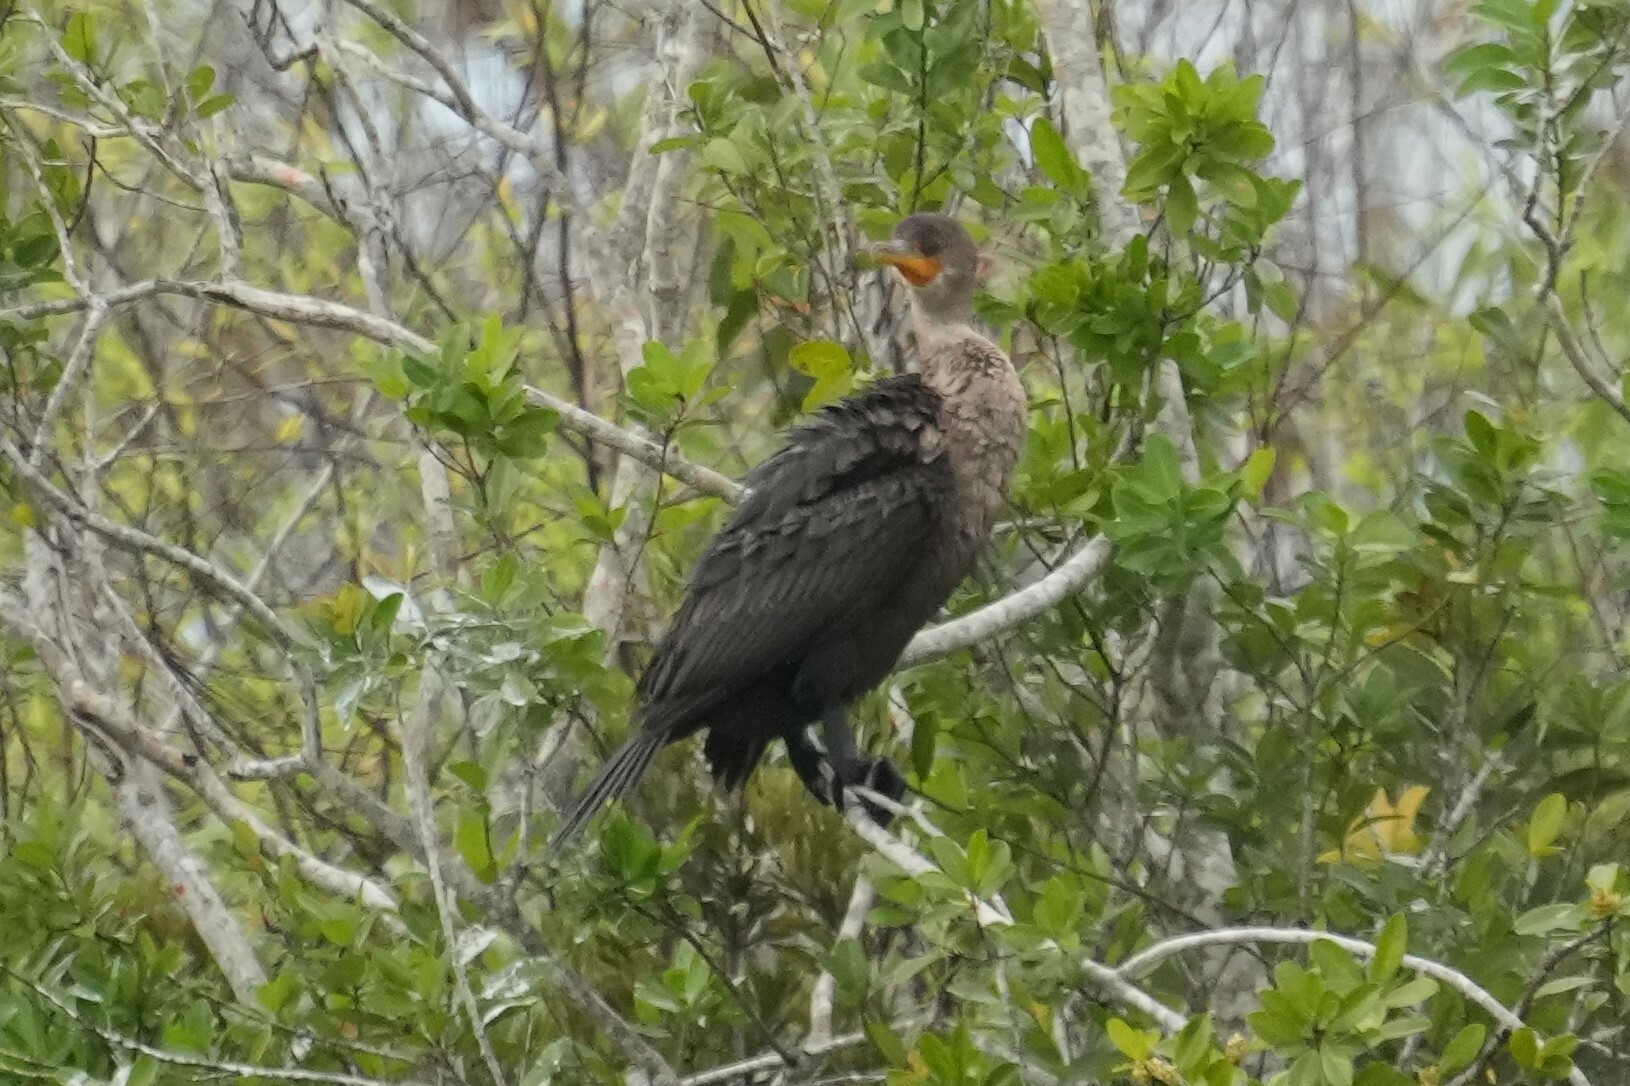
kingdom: Animalia
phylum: Chordata
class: Aves
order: Suliformes
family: Phalacrocoracidae
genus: Phalacrocorax
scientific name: Phalacrocorax auritus
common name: Double-crested cormorant
